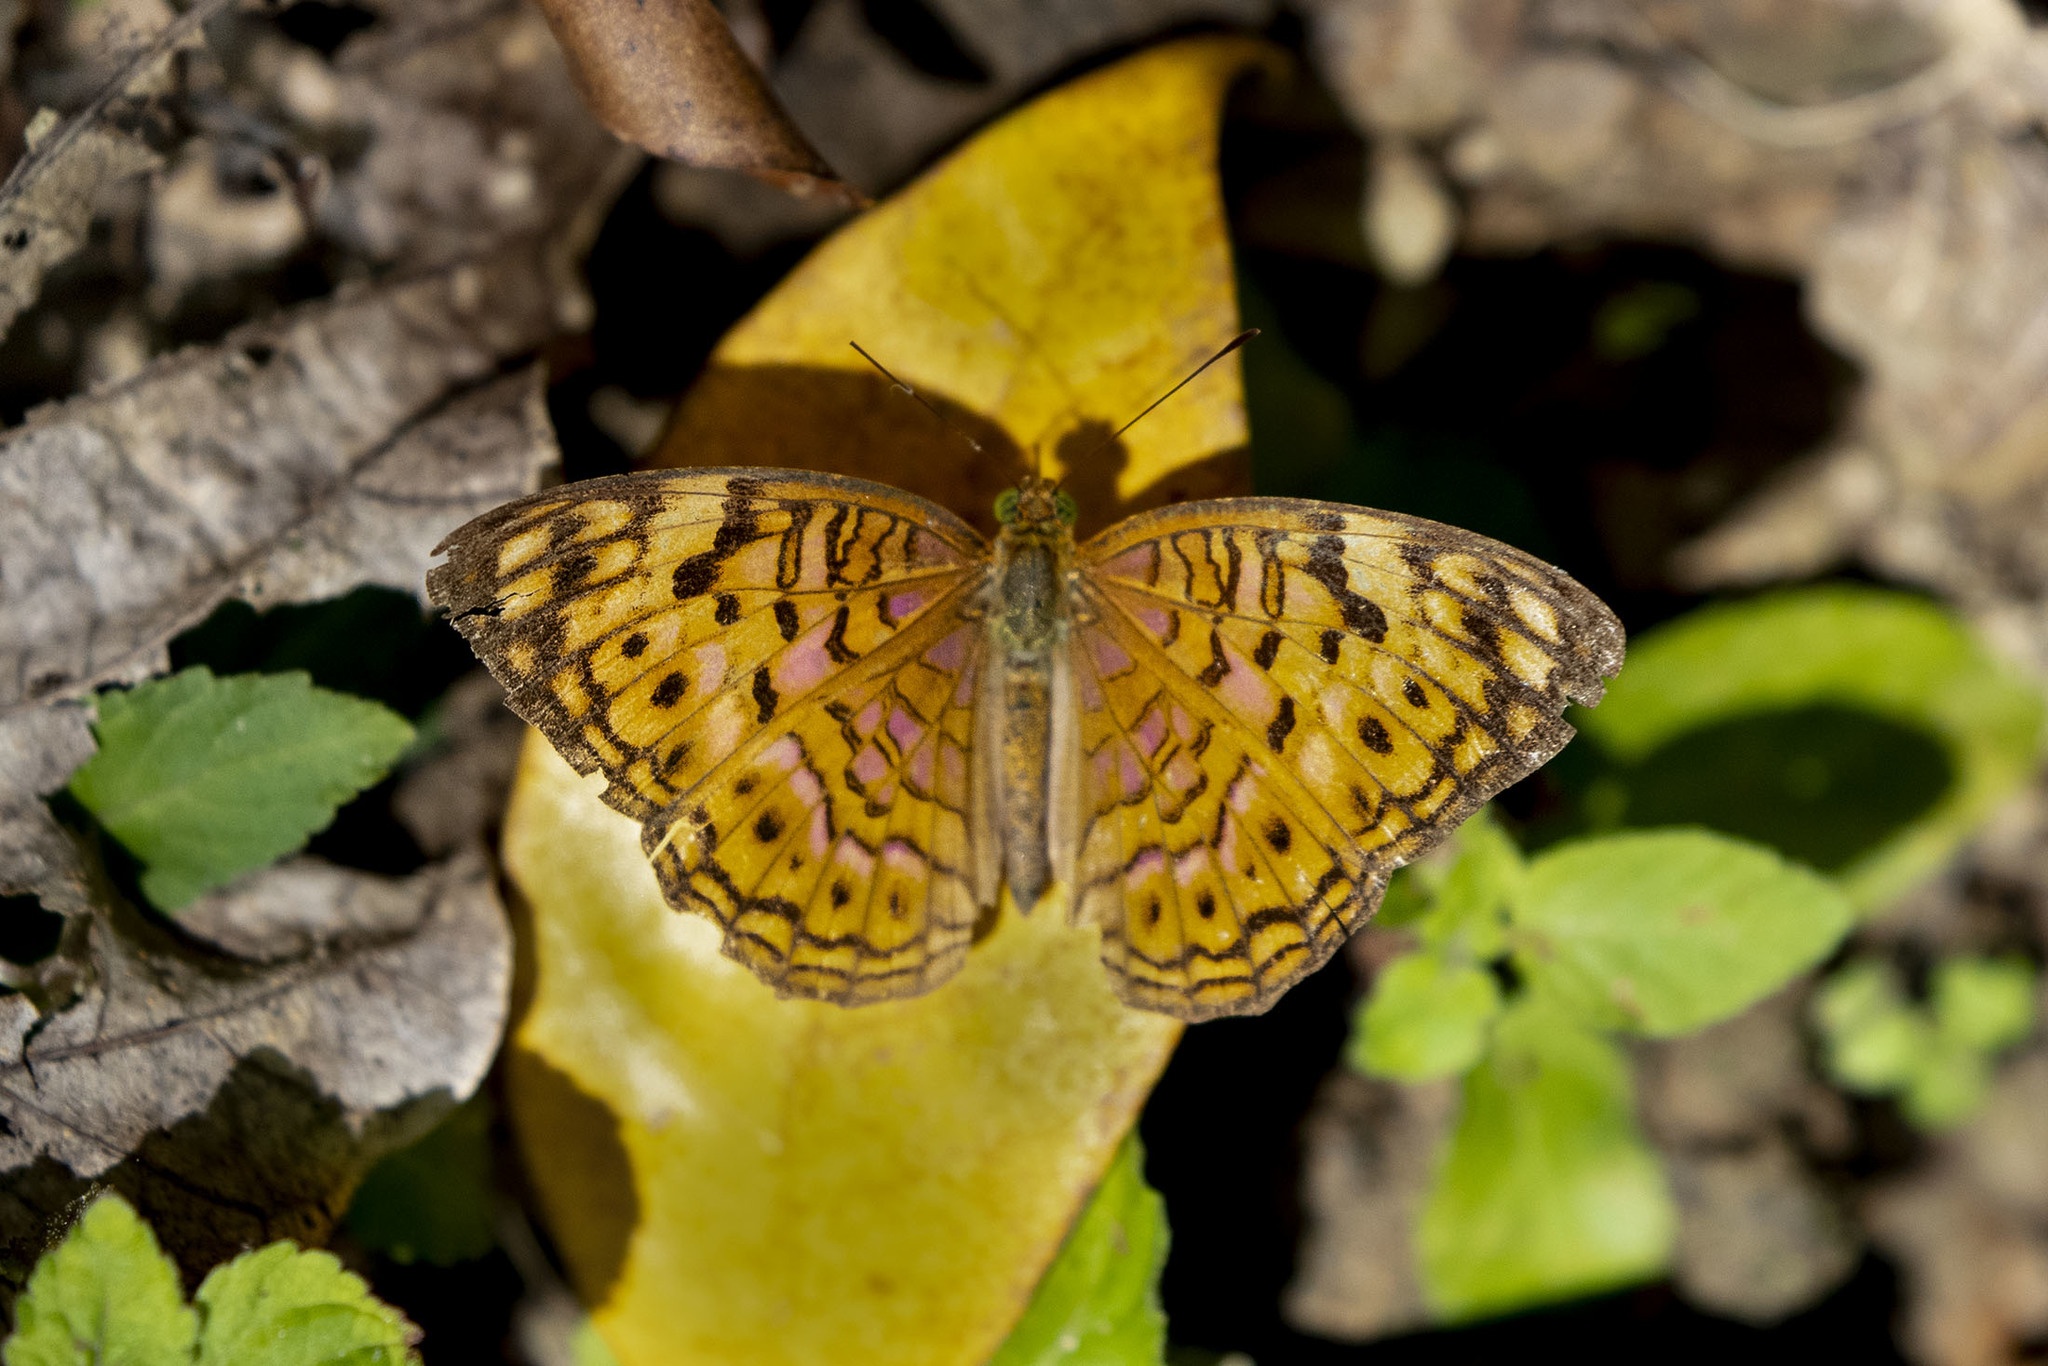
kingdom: Animalia
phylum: Arthropoda
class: Insecta
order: Lepidoptera
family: Nymphalidae
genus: Phalanta
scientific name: Phalanta alcippe
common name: Small leopard
